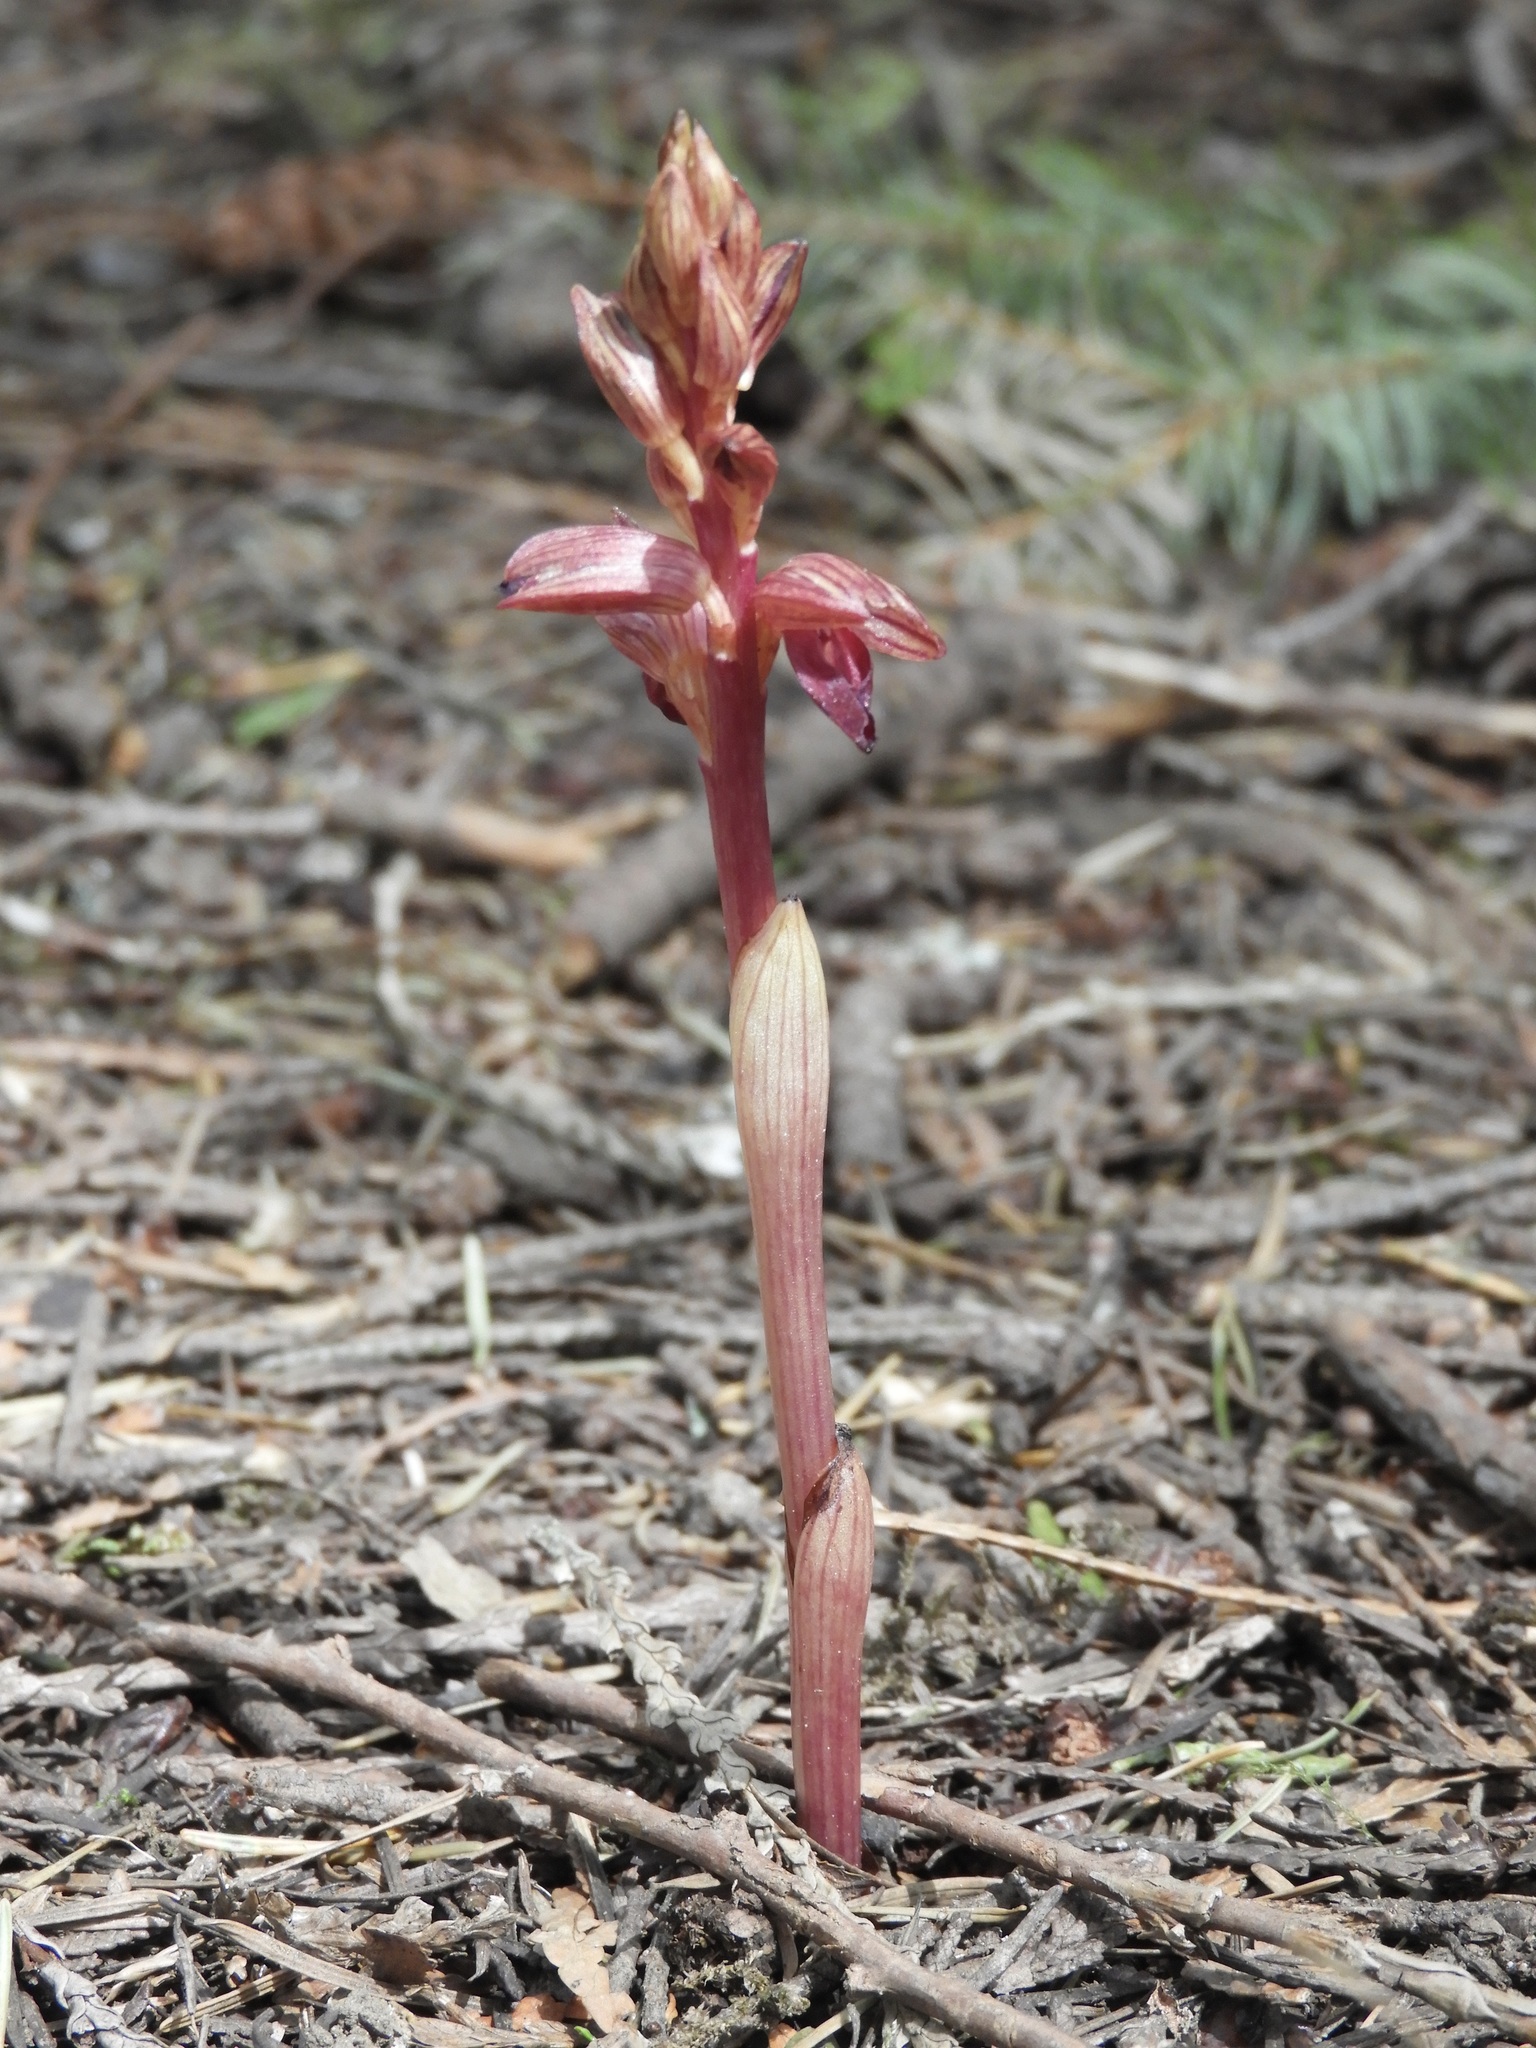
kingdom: Plantae
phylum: Tracheophyta
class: Liliopsida
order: Asparagales
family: Orchidaceae
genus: Corallorhiza
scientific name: Corallorhiza striata
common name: Hooded coralroot
